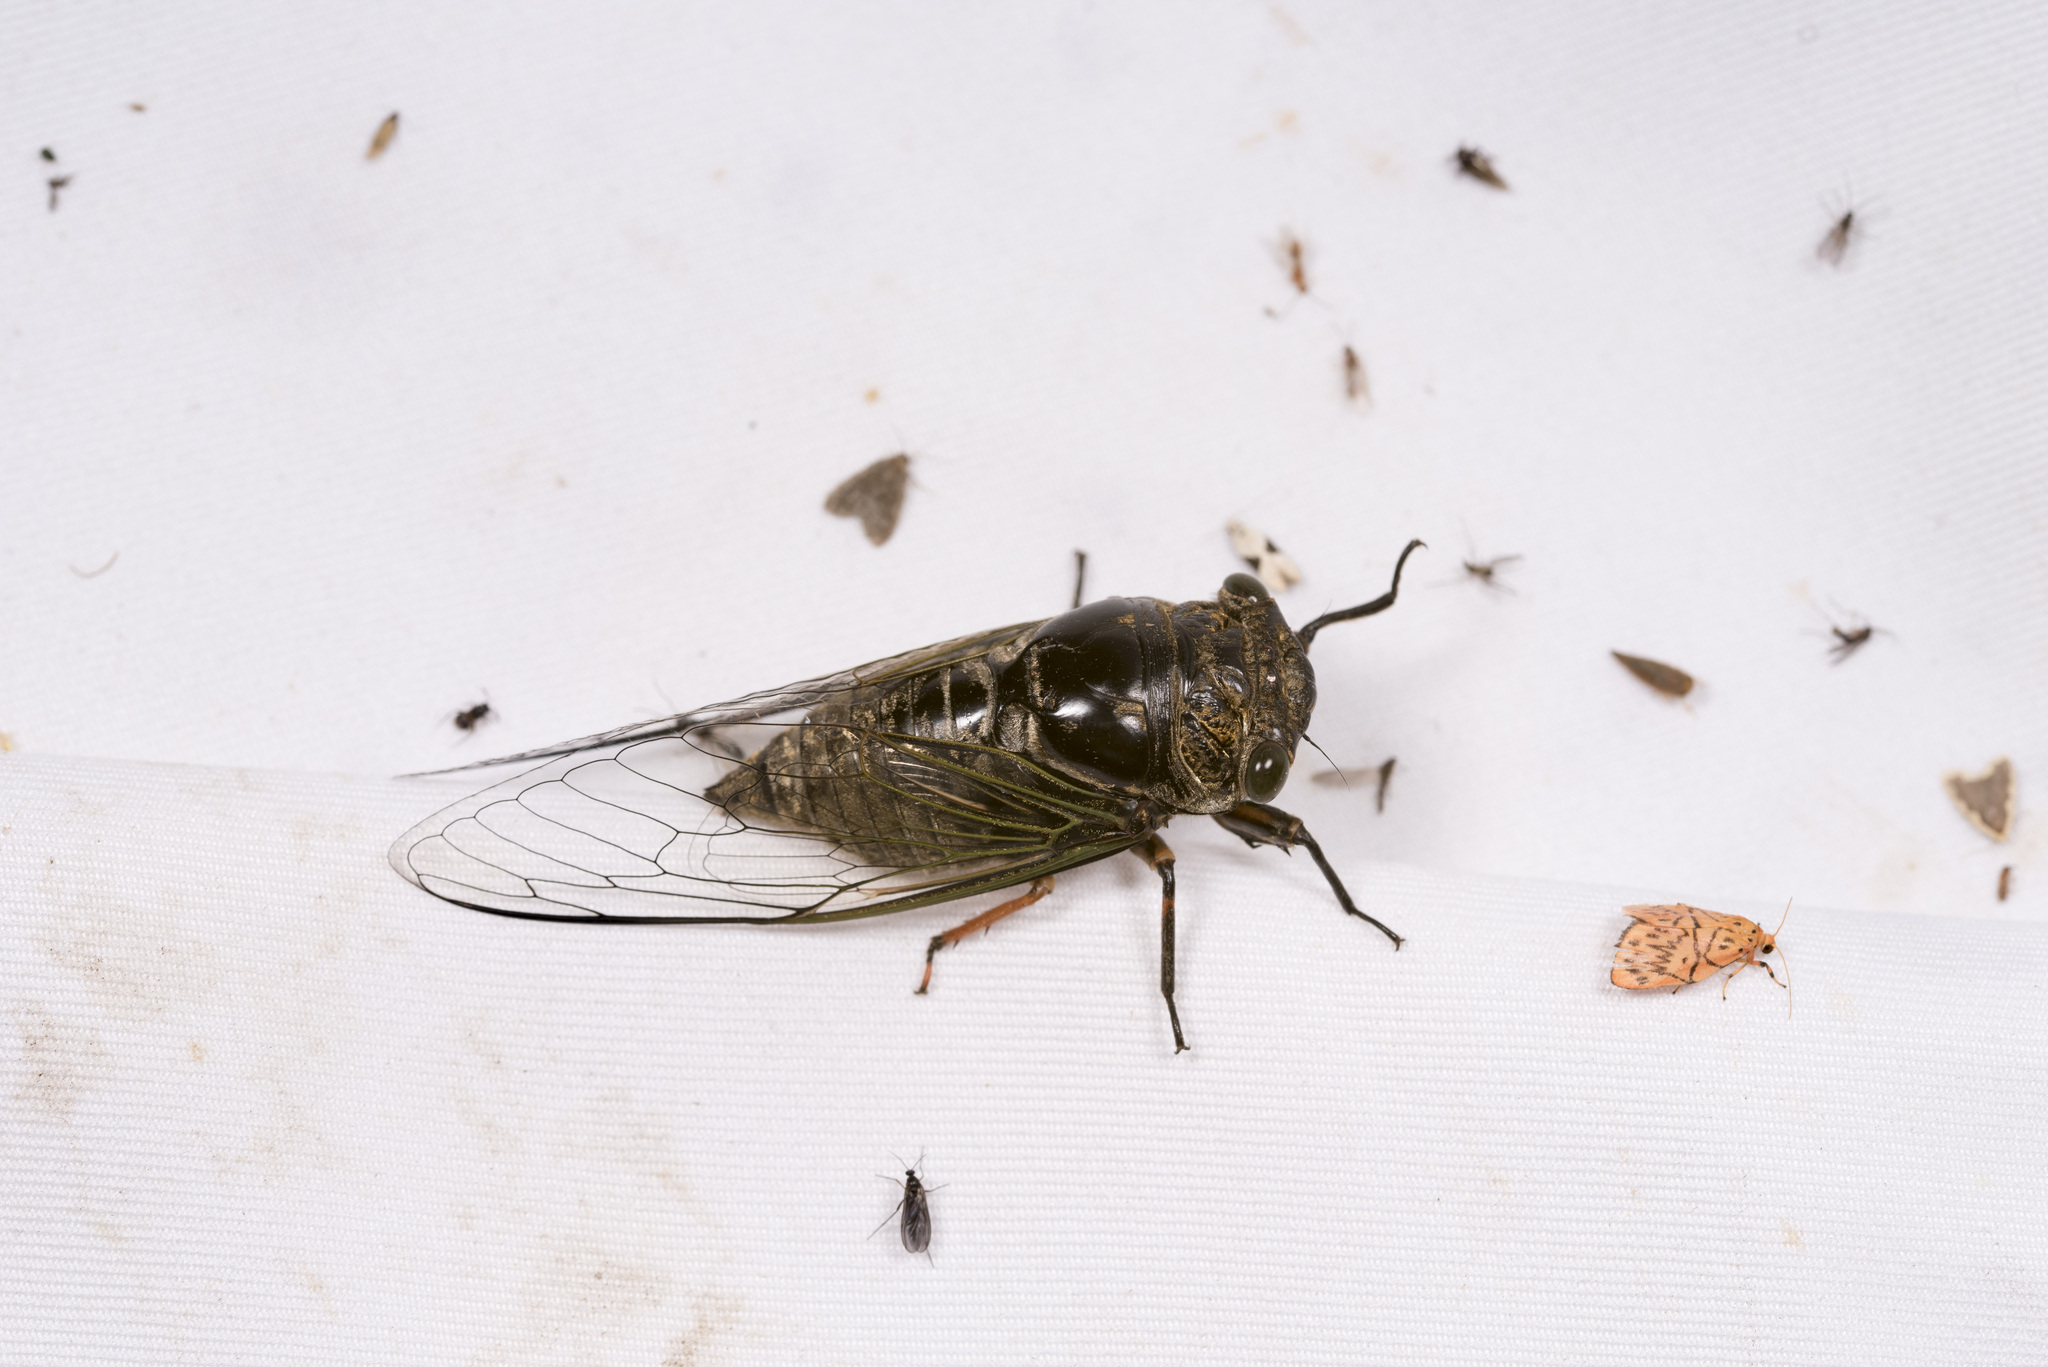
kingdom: Animalia
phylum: Arthropoda
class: Insecta
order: Hemiptera
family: Cicadidae
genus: Cryptotympana
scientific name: Cryptotympana takasagona
